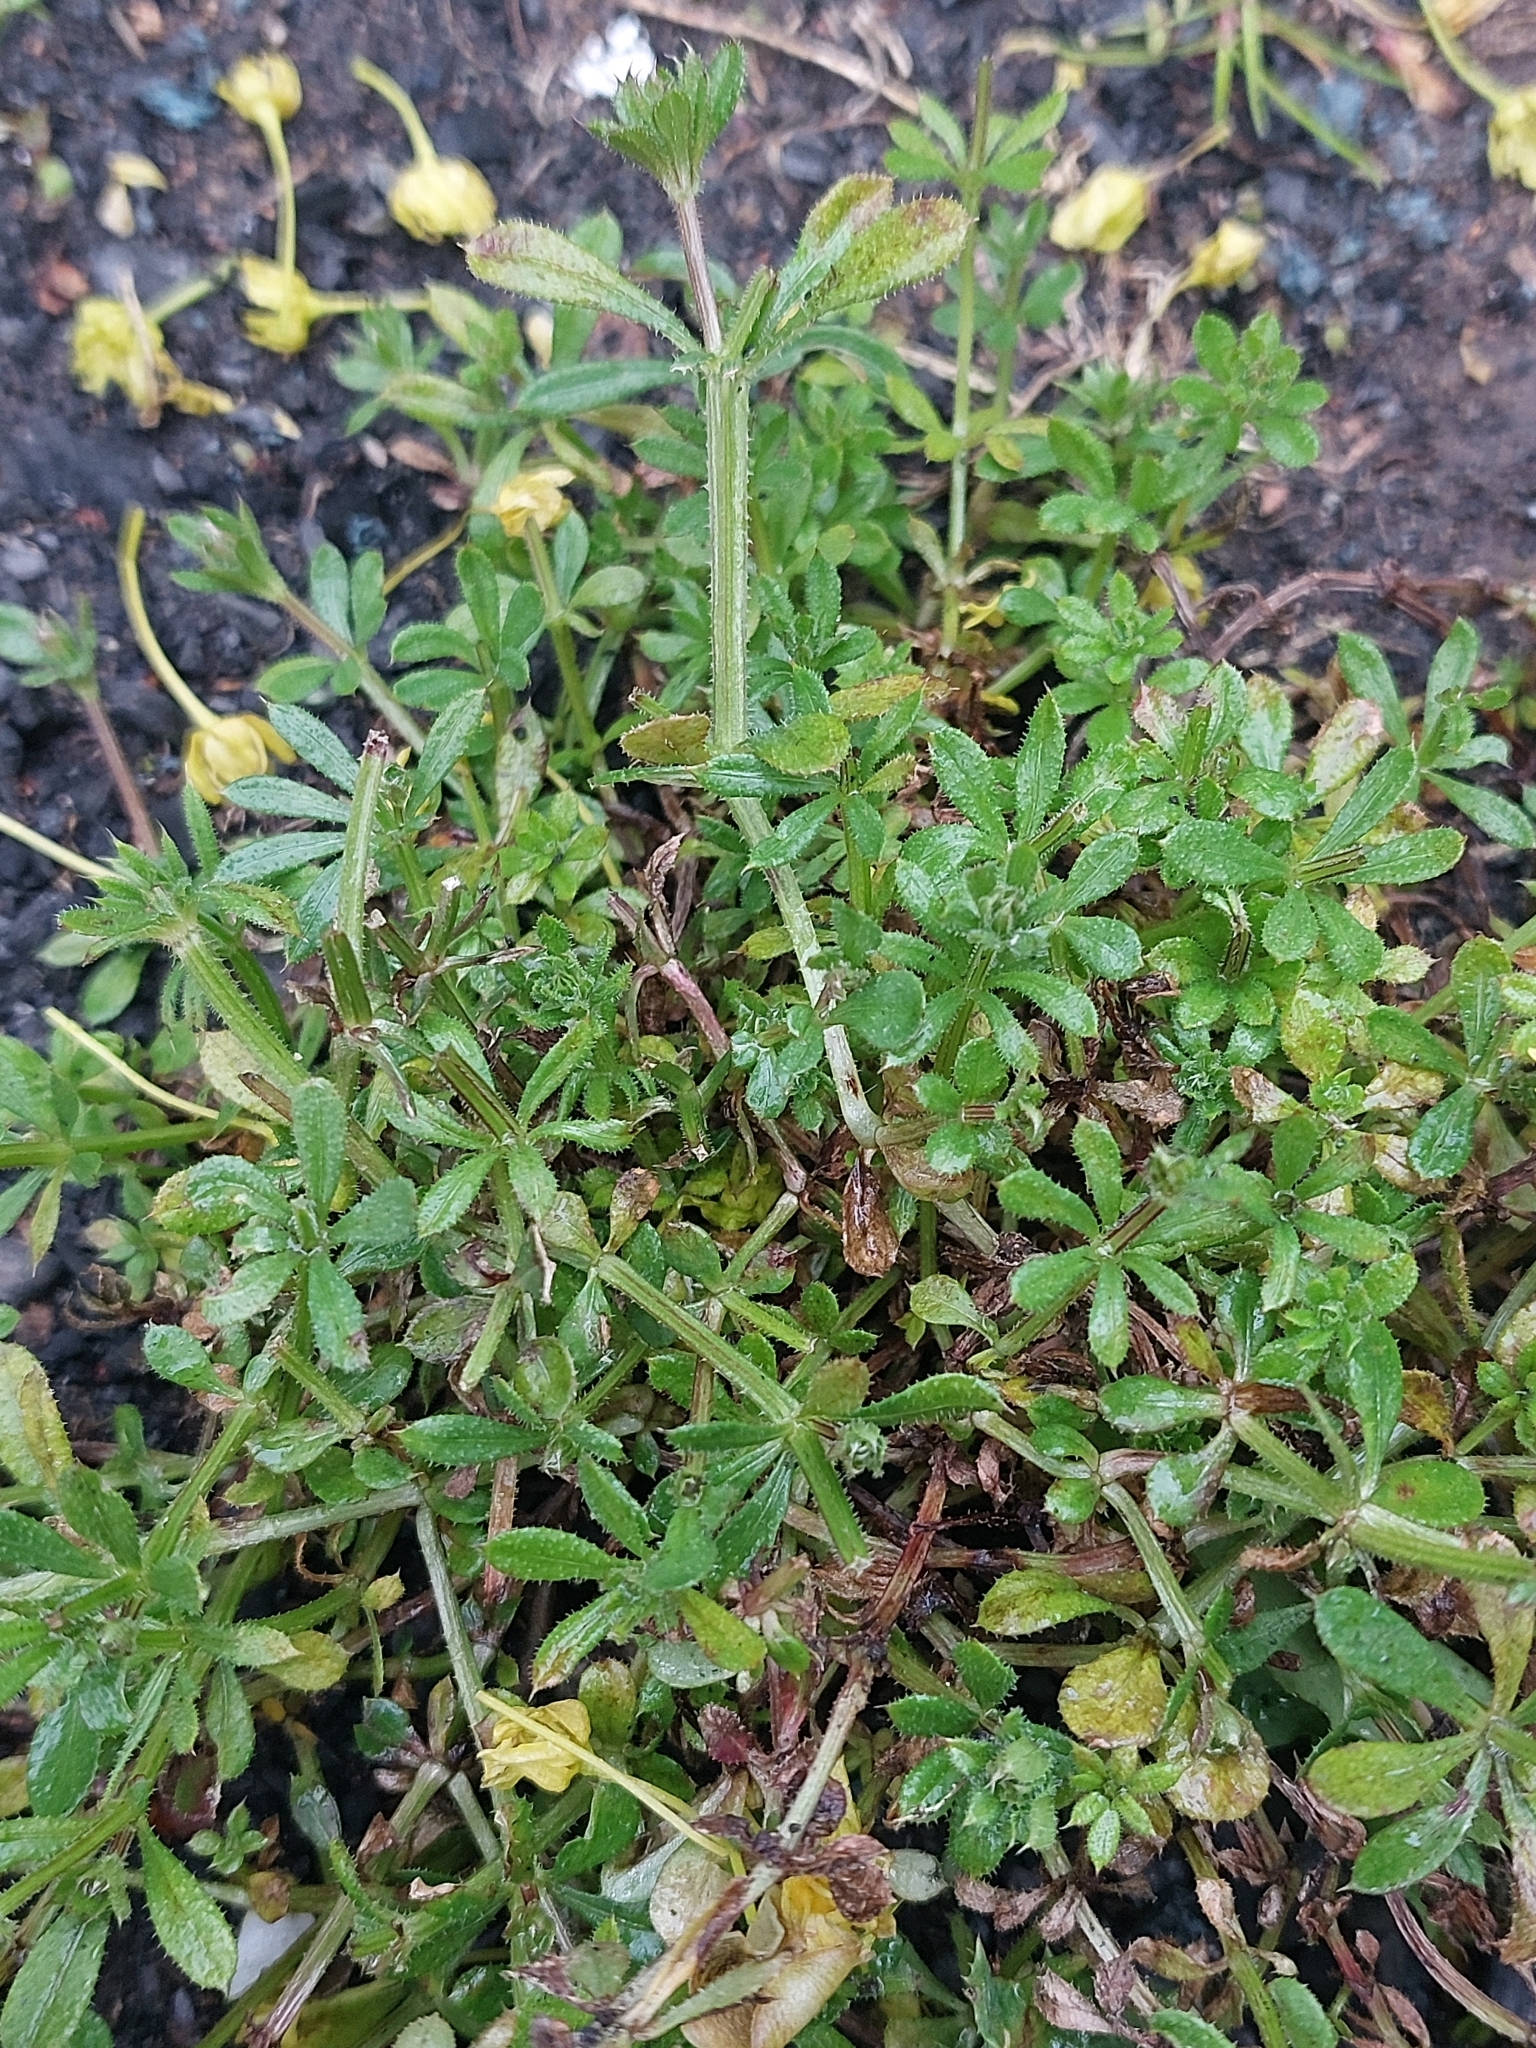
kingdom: Plantae
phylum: Tracheophyta
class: Magnoliopsida
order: Gentianales
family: Rubiaceae
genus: Galium
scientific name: Galium aparine
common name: Cleavers
